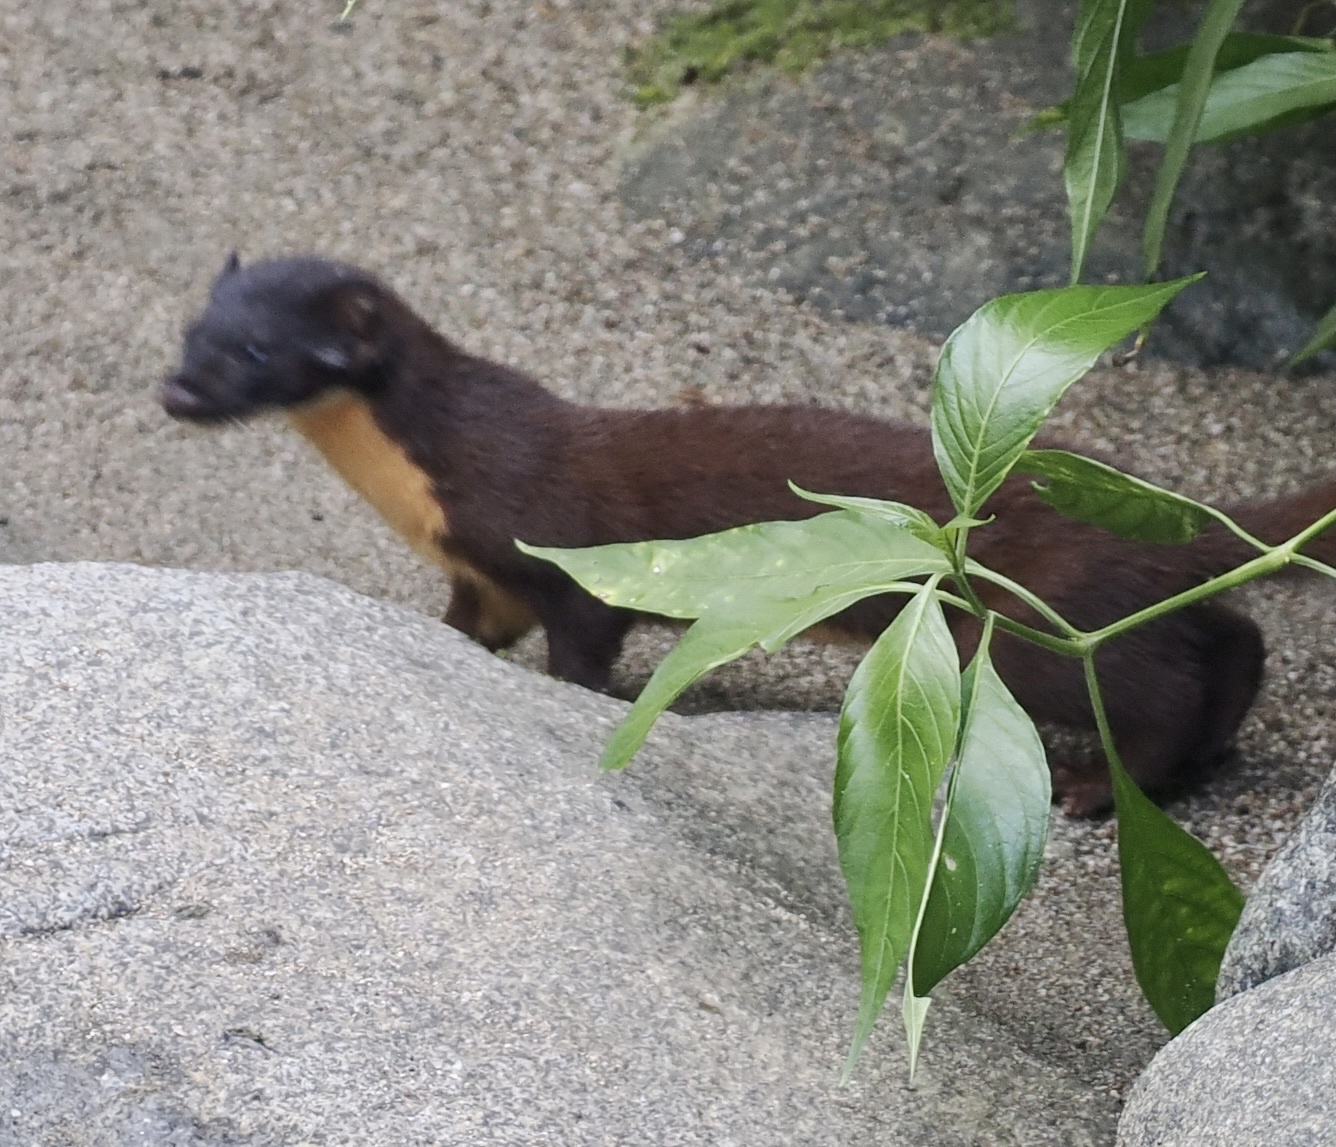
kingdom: Animalia
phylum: Chordata
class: Mammalia
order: Carnivora
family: Mustelidae
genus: Mustela
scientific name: Mustela
